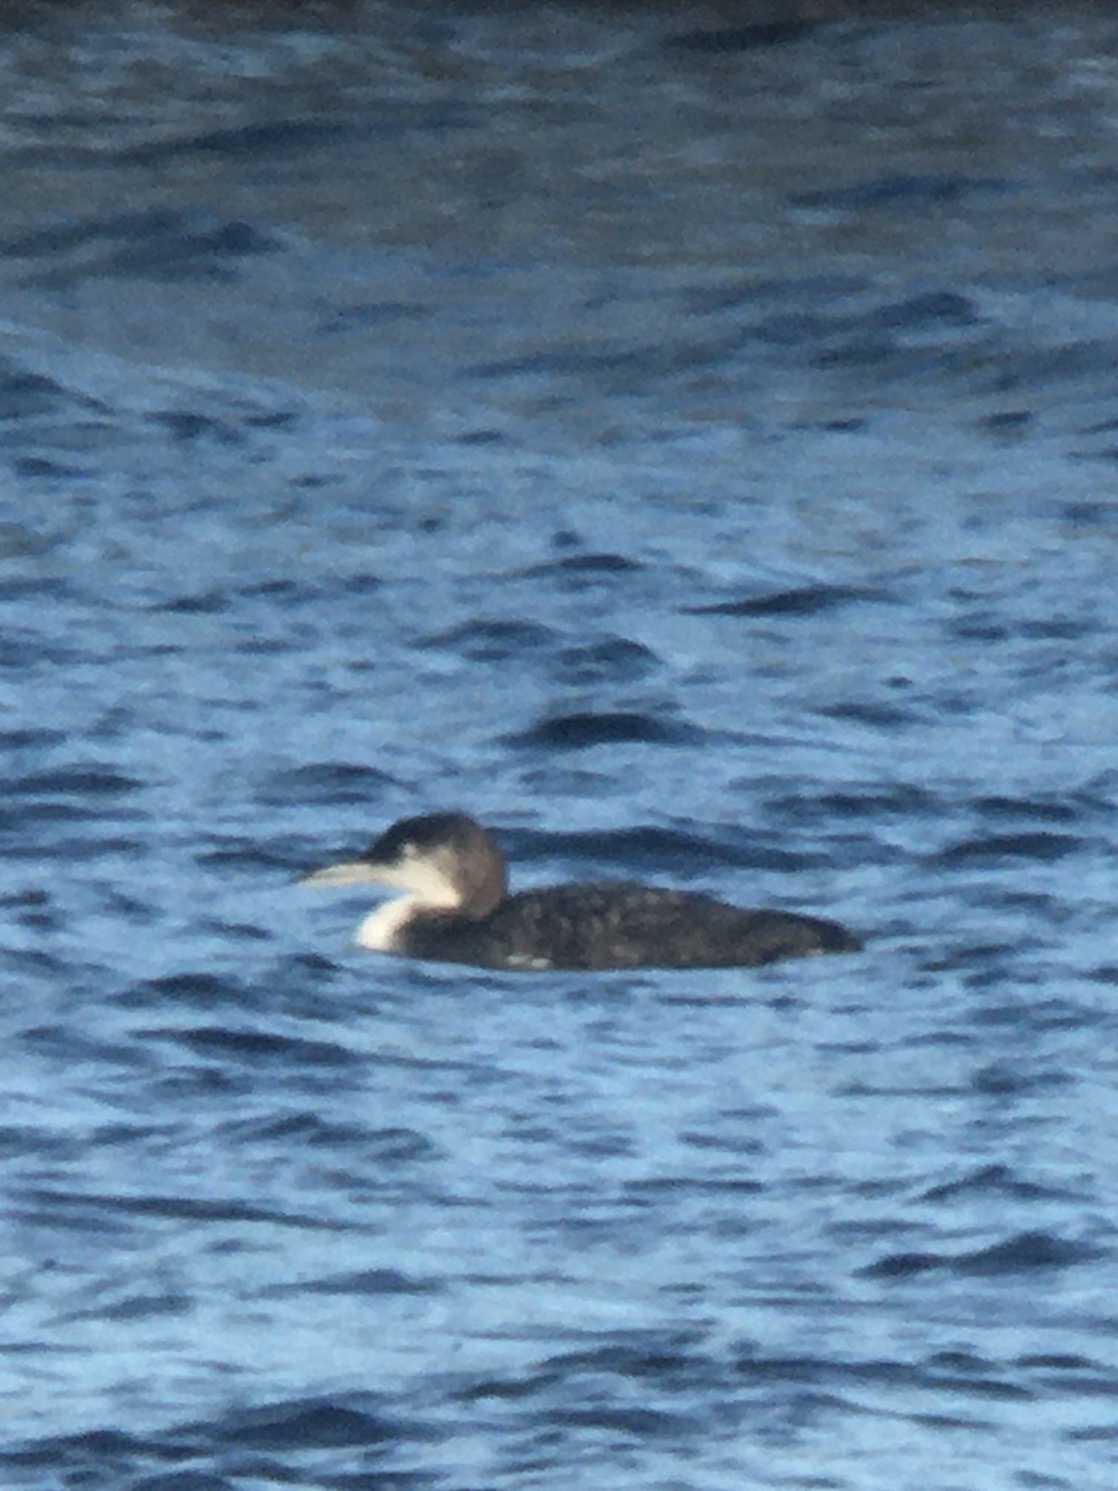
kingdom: Animalia
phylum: Chordata
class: Aves
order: Gaviiformes
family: Gaviidae
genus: Gavia
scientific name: Gavia immer
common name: Common loon
